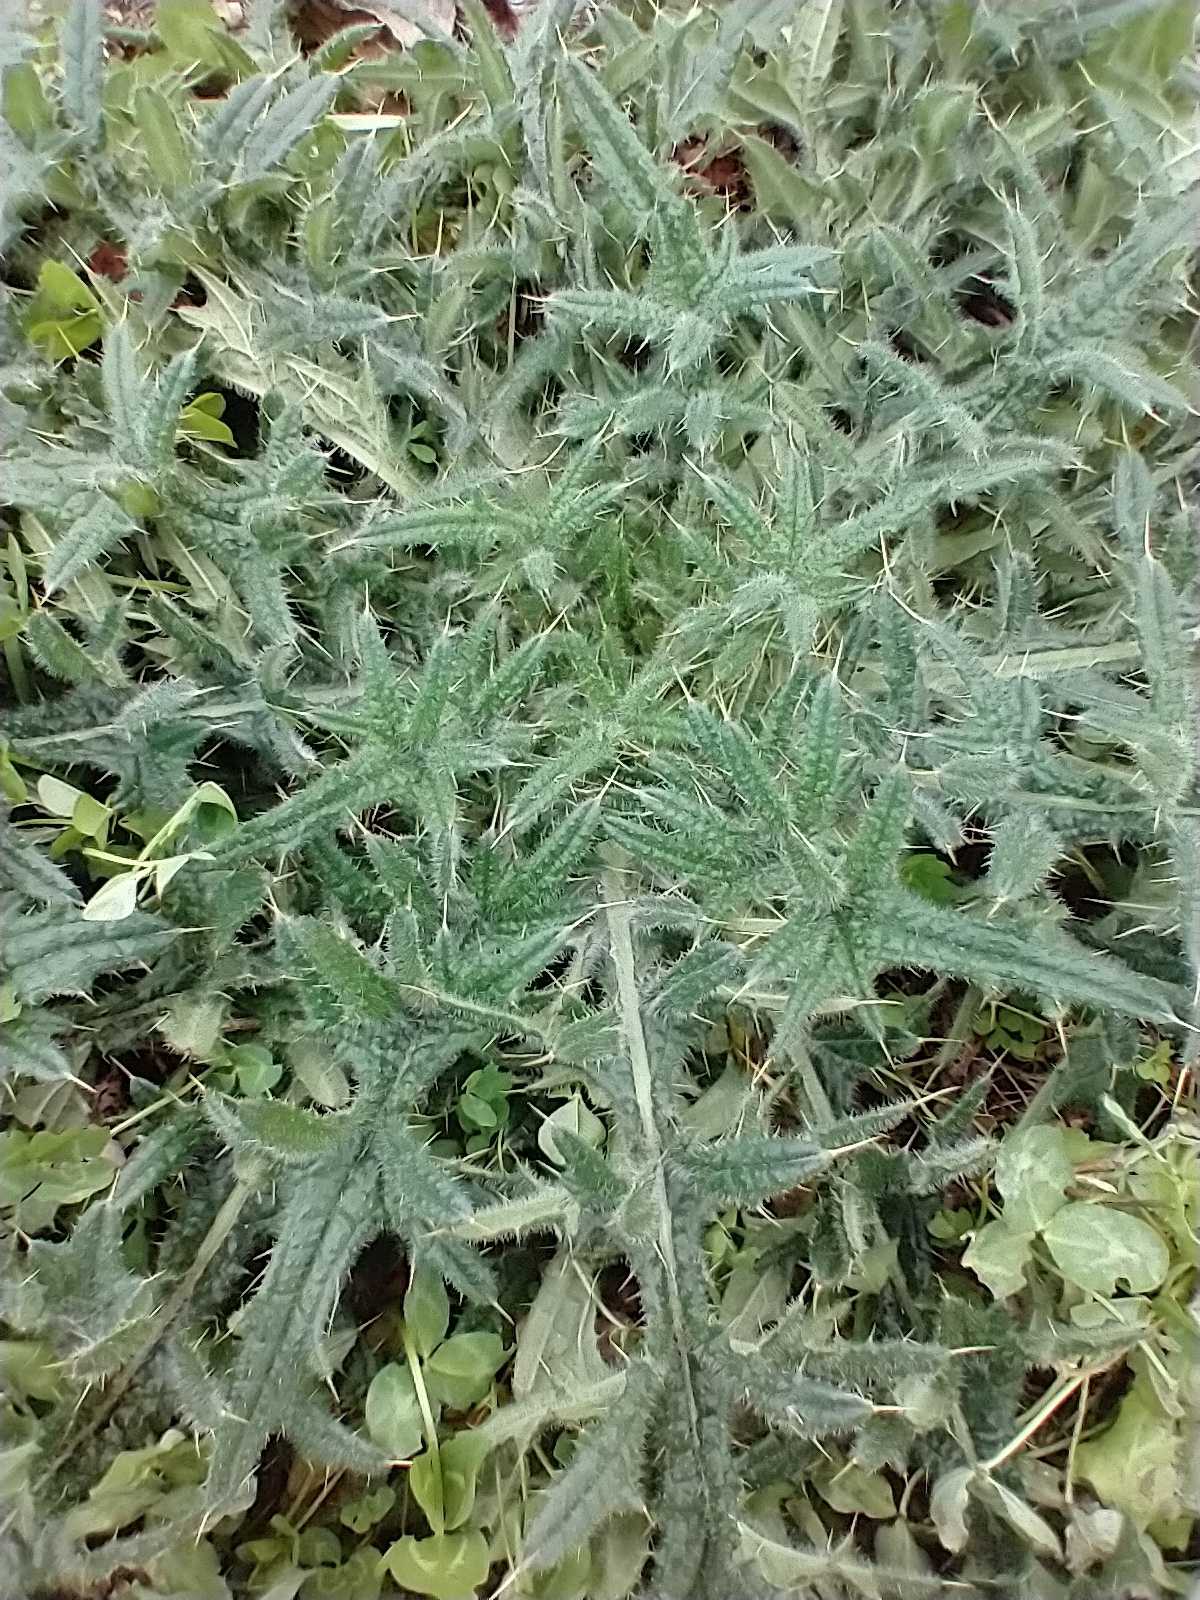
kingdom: Plantae
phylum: Tracheophyta
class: Magnoliopsida
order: Asterales
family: Asteraceae
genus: Cirsium
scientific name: Cirsium vulgare
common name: Bull thistle
